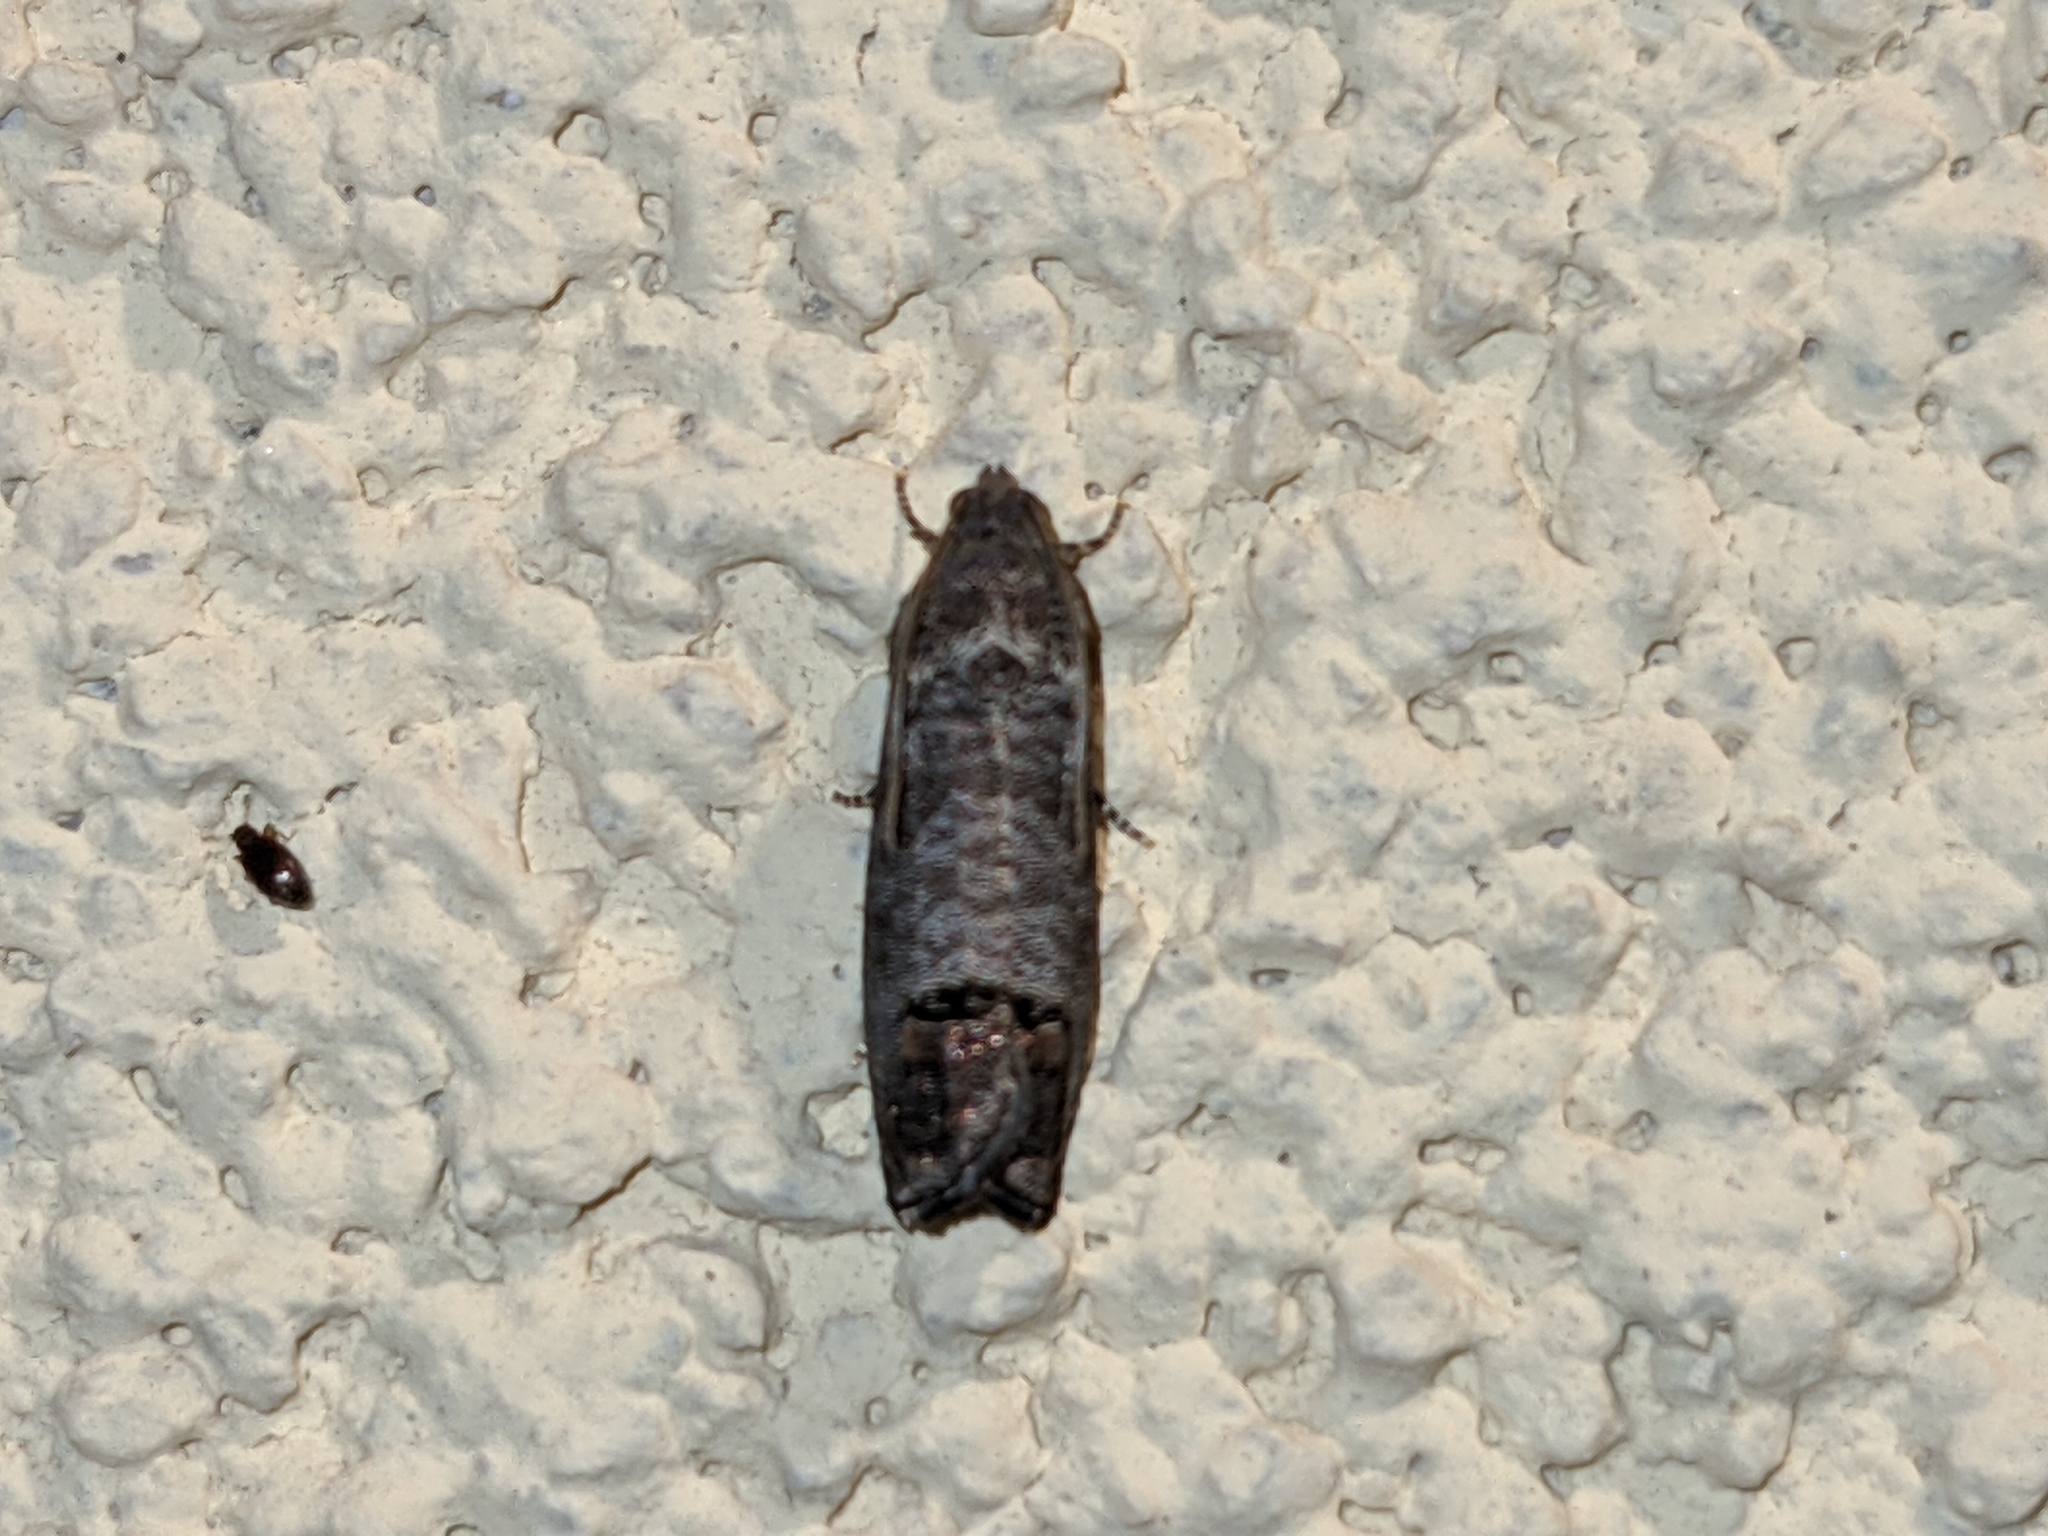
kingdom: Animalia
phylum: Arthropoda
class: Insecta
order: Lepidoptera
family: Tortricidae
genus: Cydia
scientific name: Cydia pomonella
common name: Codling moth
